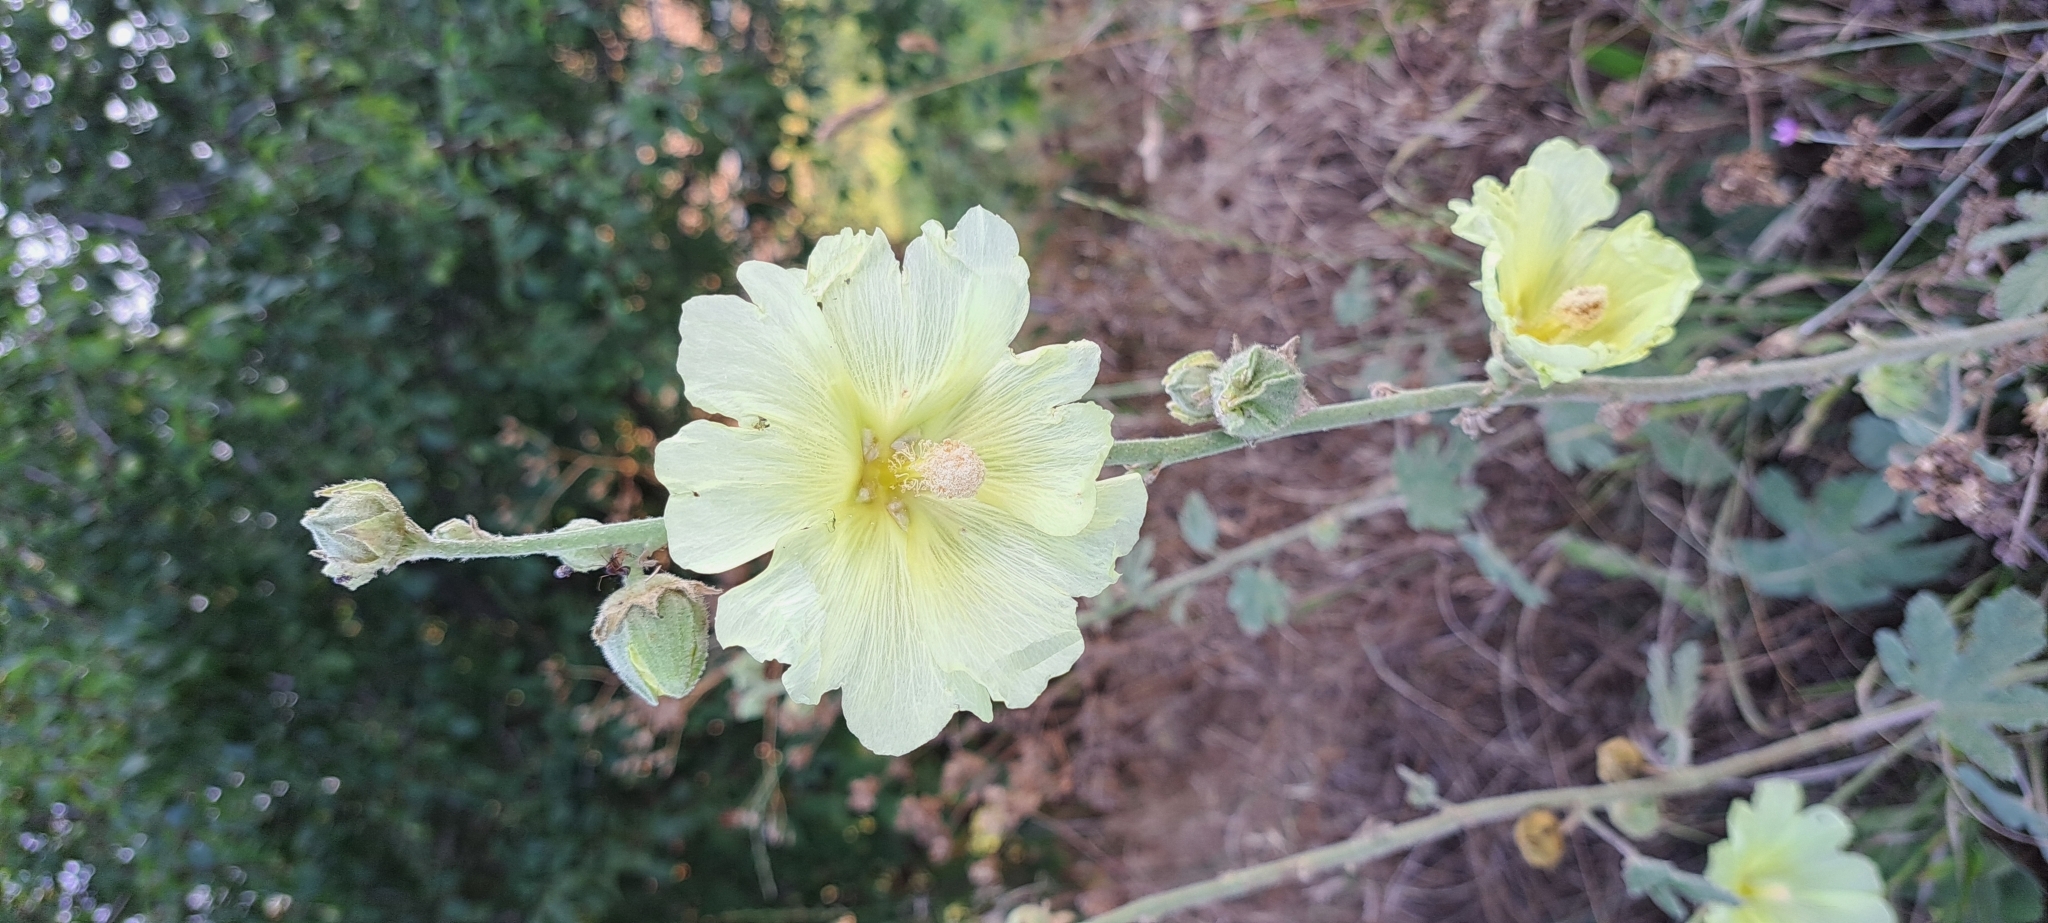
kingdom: Plantae
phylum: Tracheophyta
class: Magnoliopsida
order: Malvales
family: Malvaceae
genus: Alcea
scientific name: Alcea rugosa
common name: Russian hollyhock
